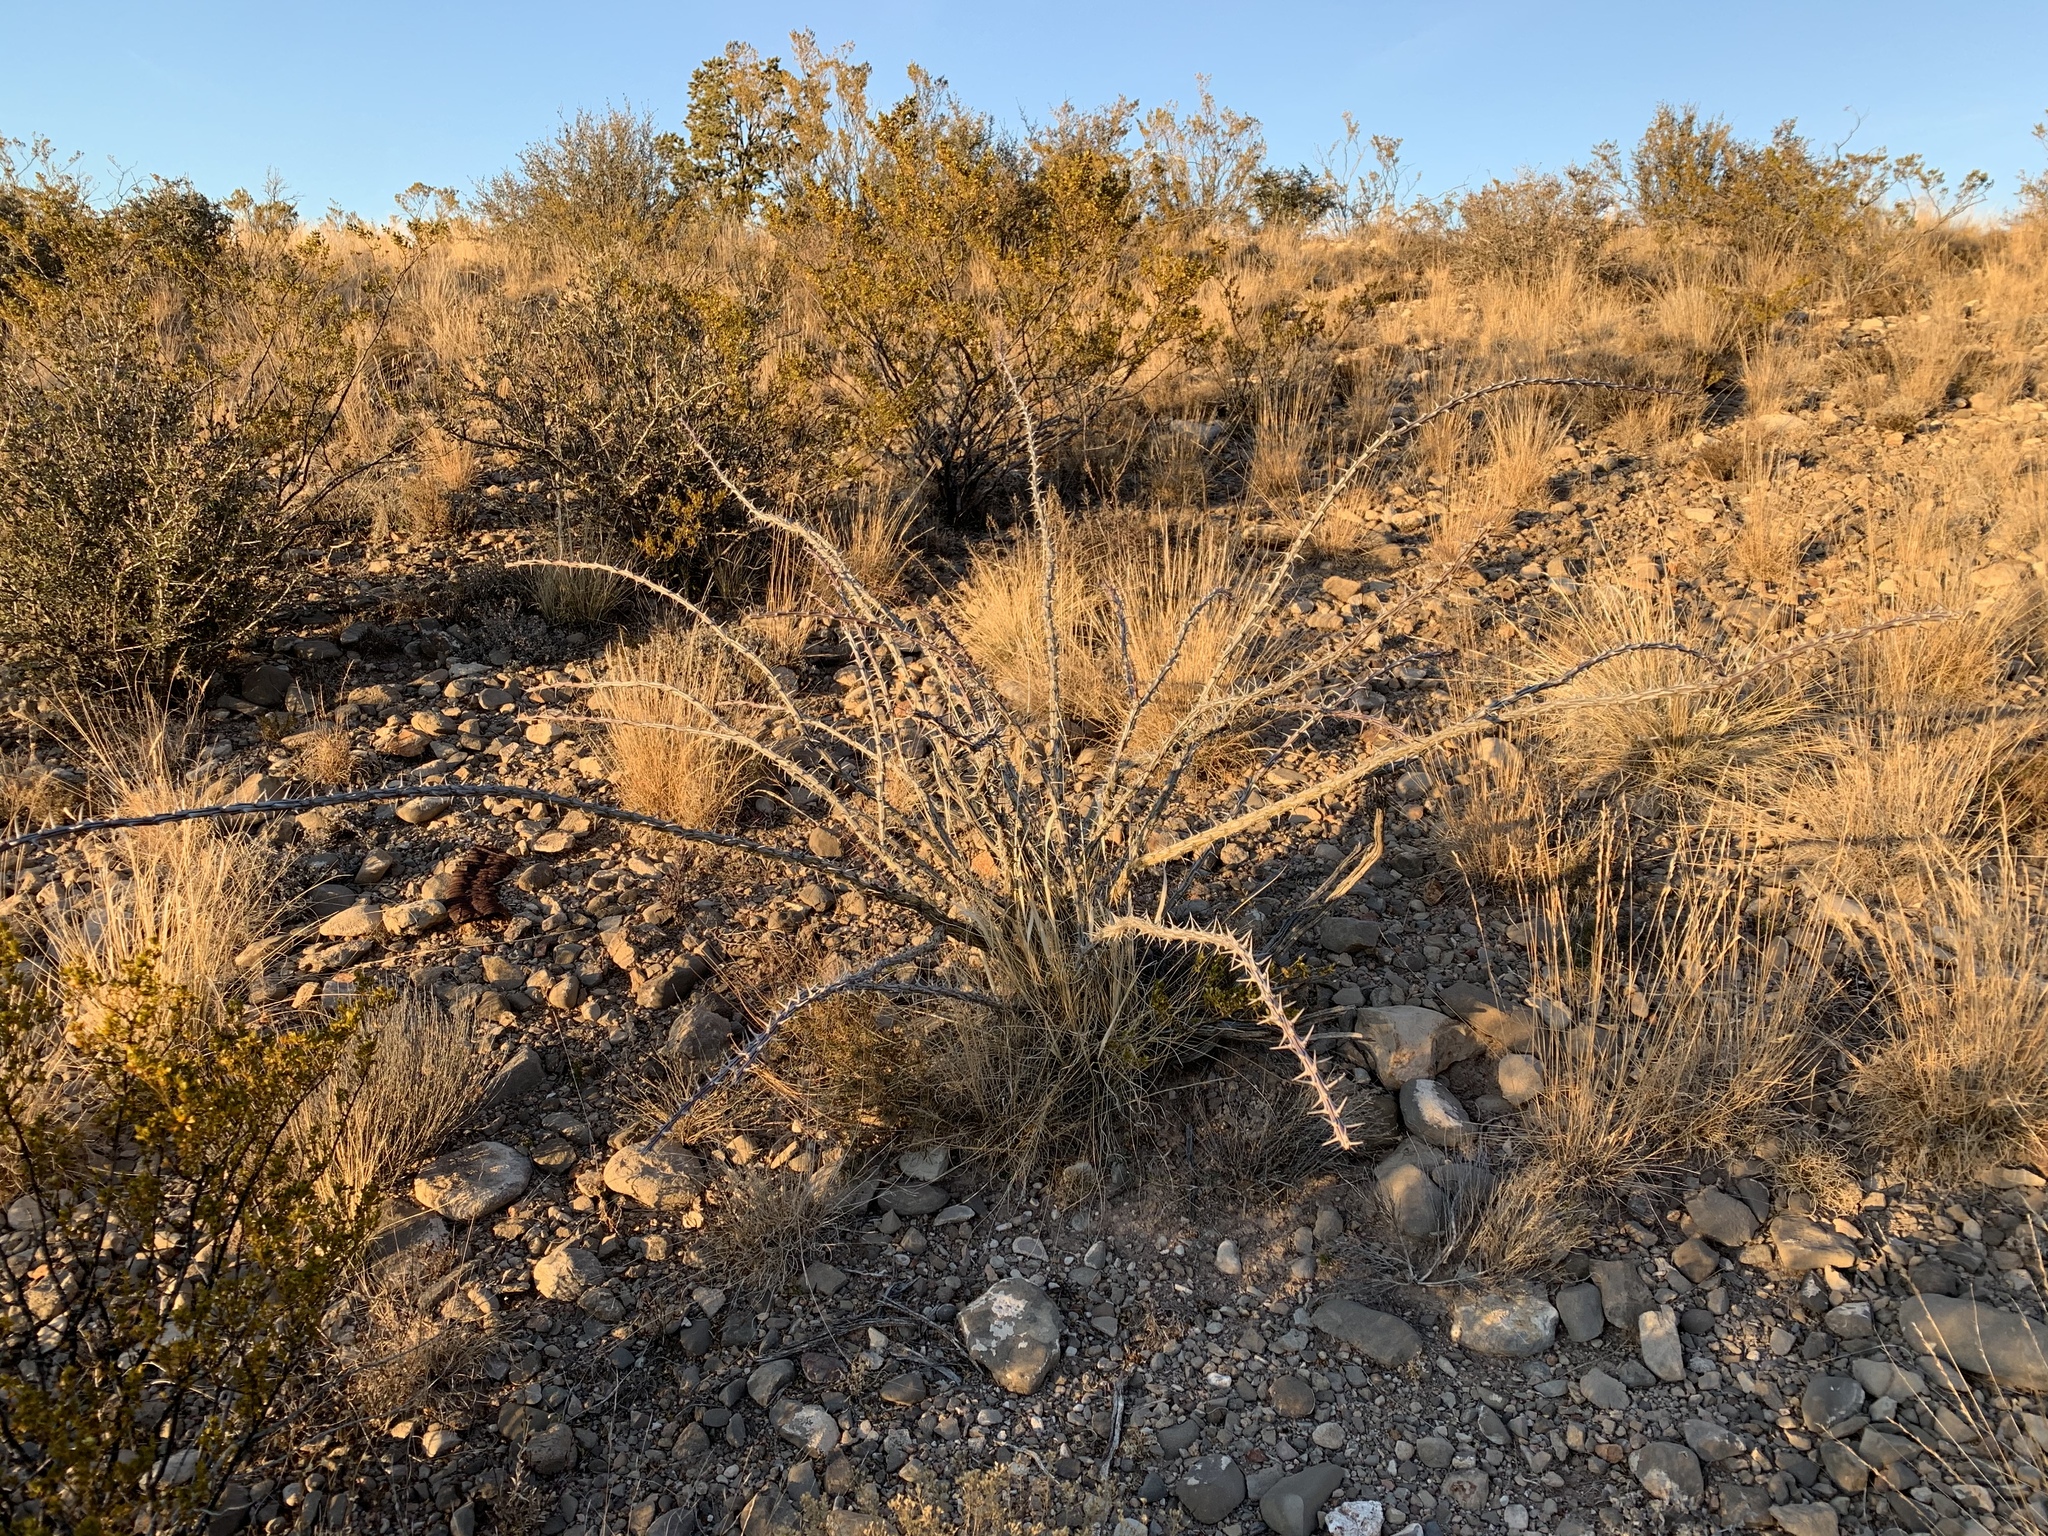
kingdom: Plantae
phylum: Tracheophyta
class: Magnoliopsida
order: Ericales
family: Fouquieriaceae
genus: Fouquieria
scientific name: Fouquieria splendens
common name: Vine-cactus
